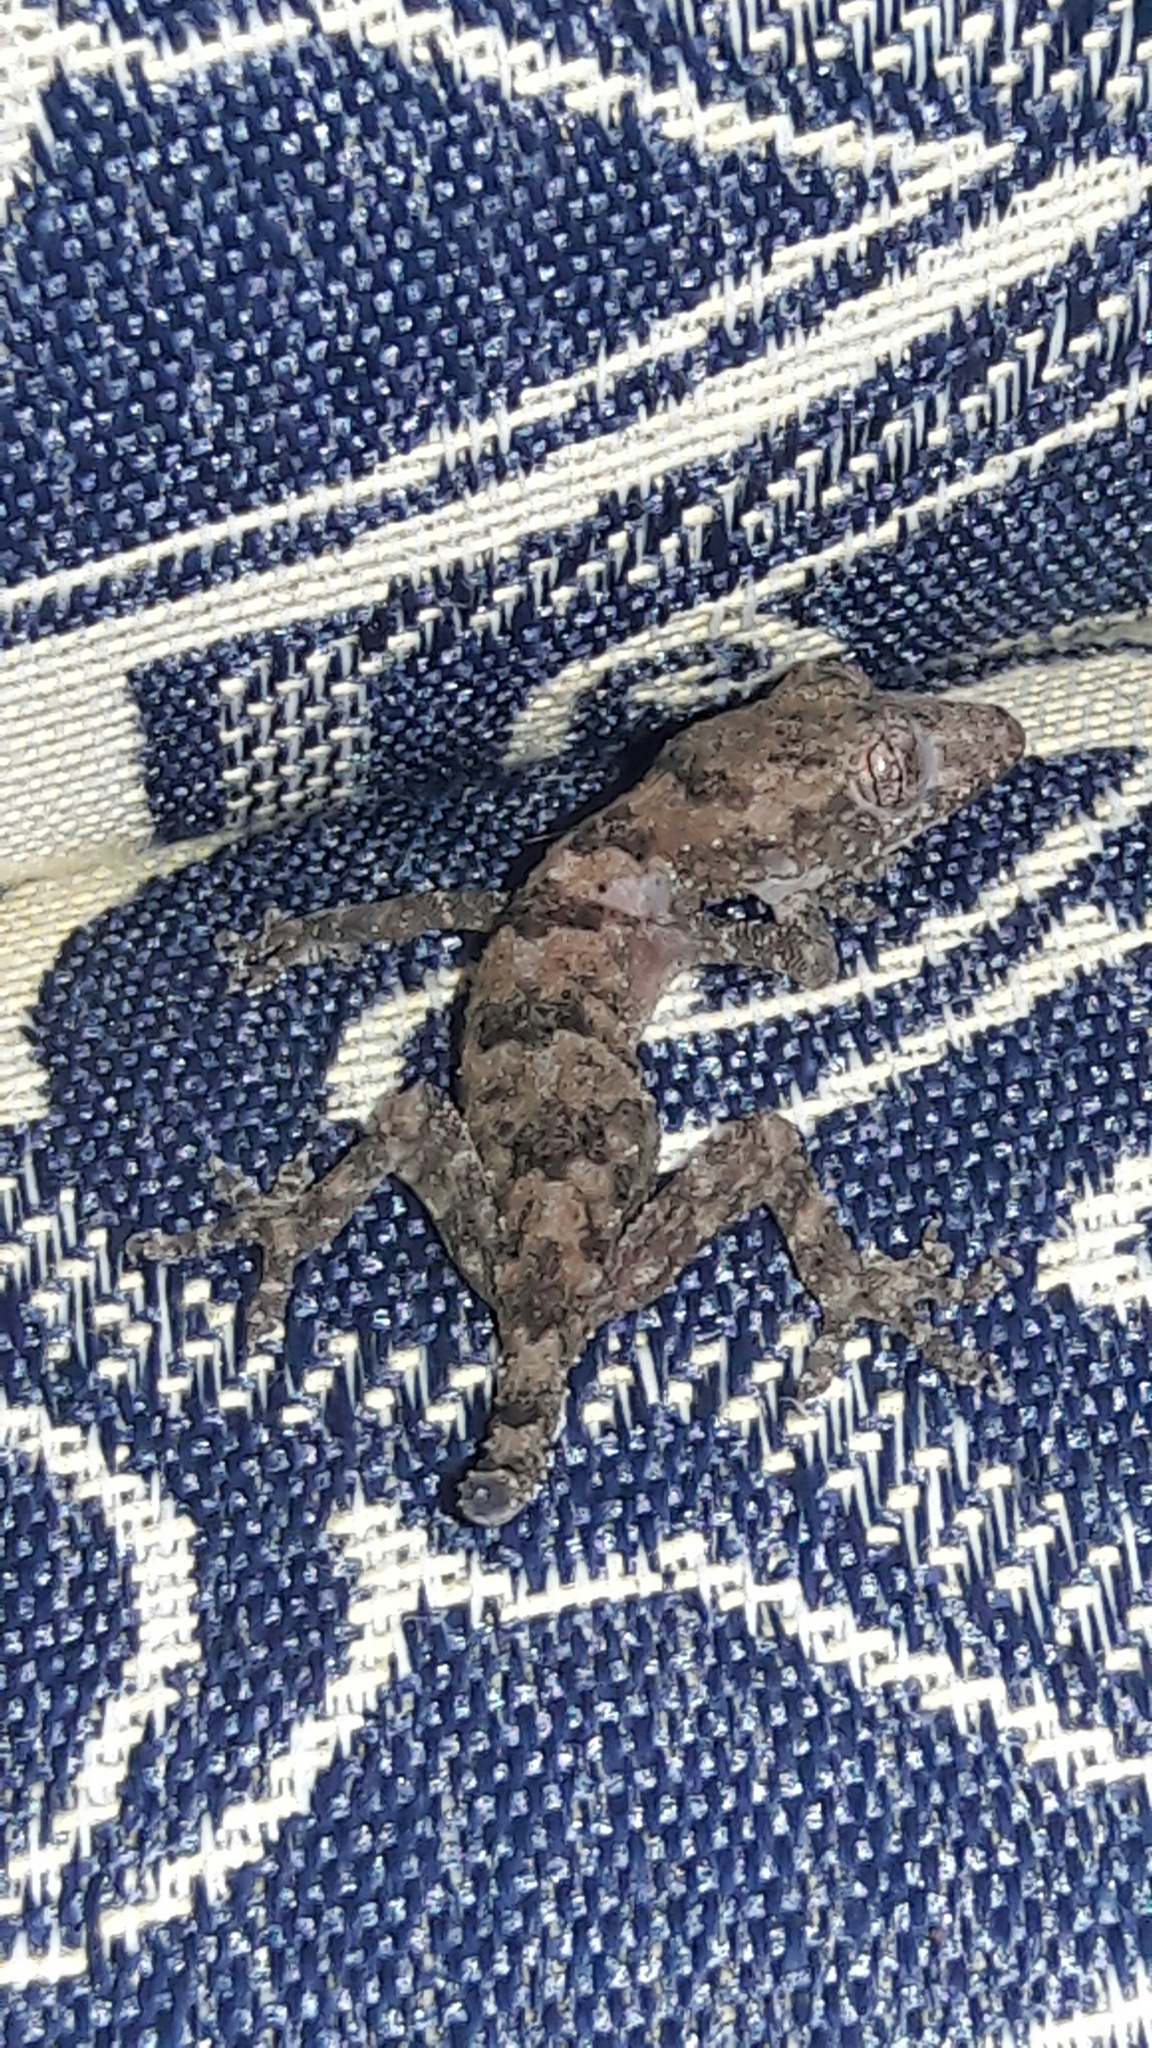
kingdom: Animalia
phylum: Chordata
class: Squamata
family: Gekkonidae
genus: Hemidactylus
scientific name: Hemidactylus mabouia
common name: House gecko
